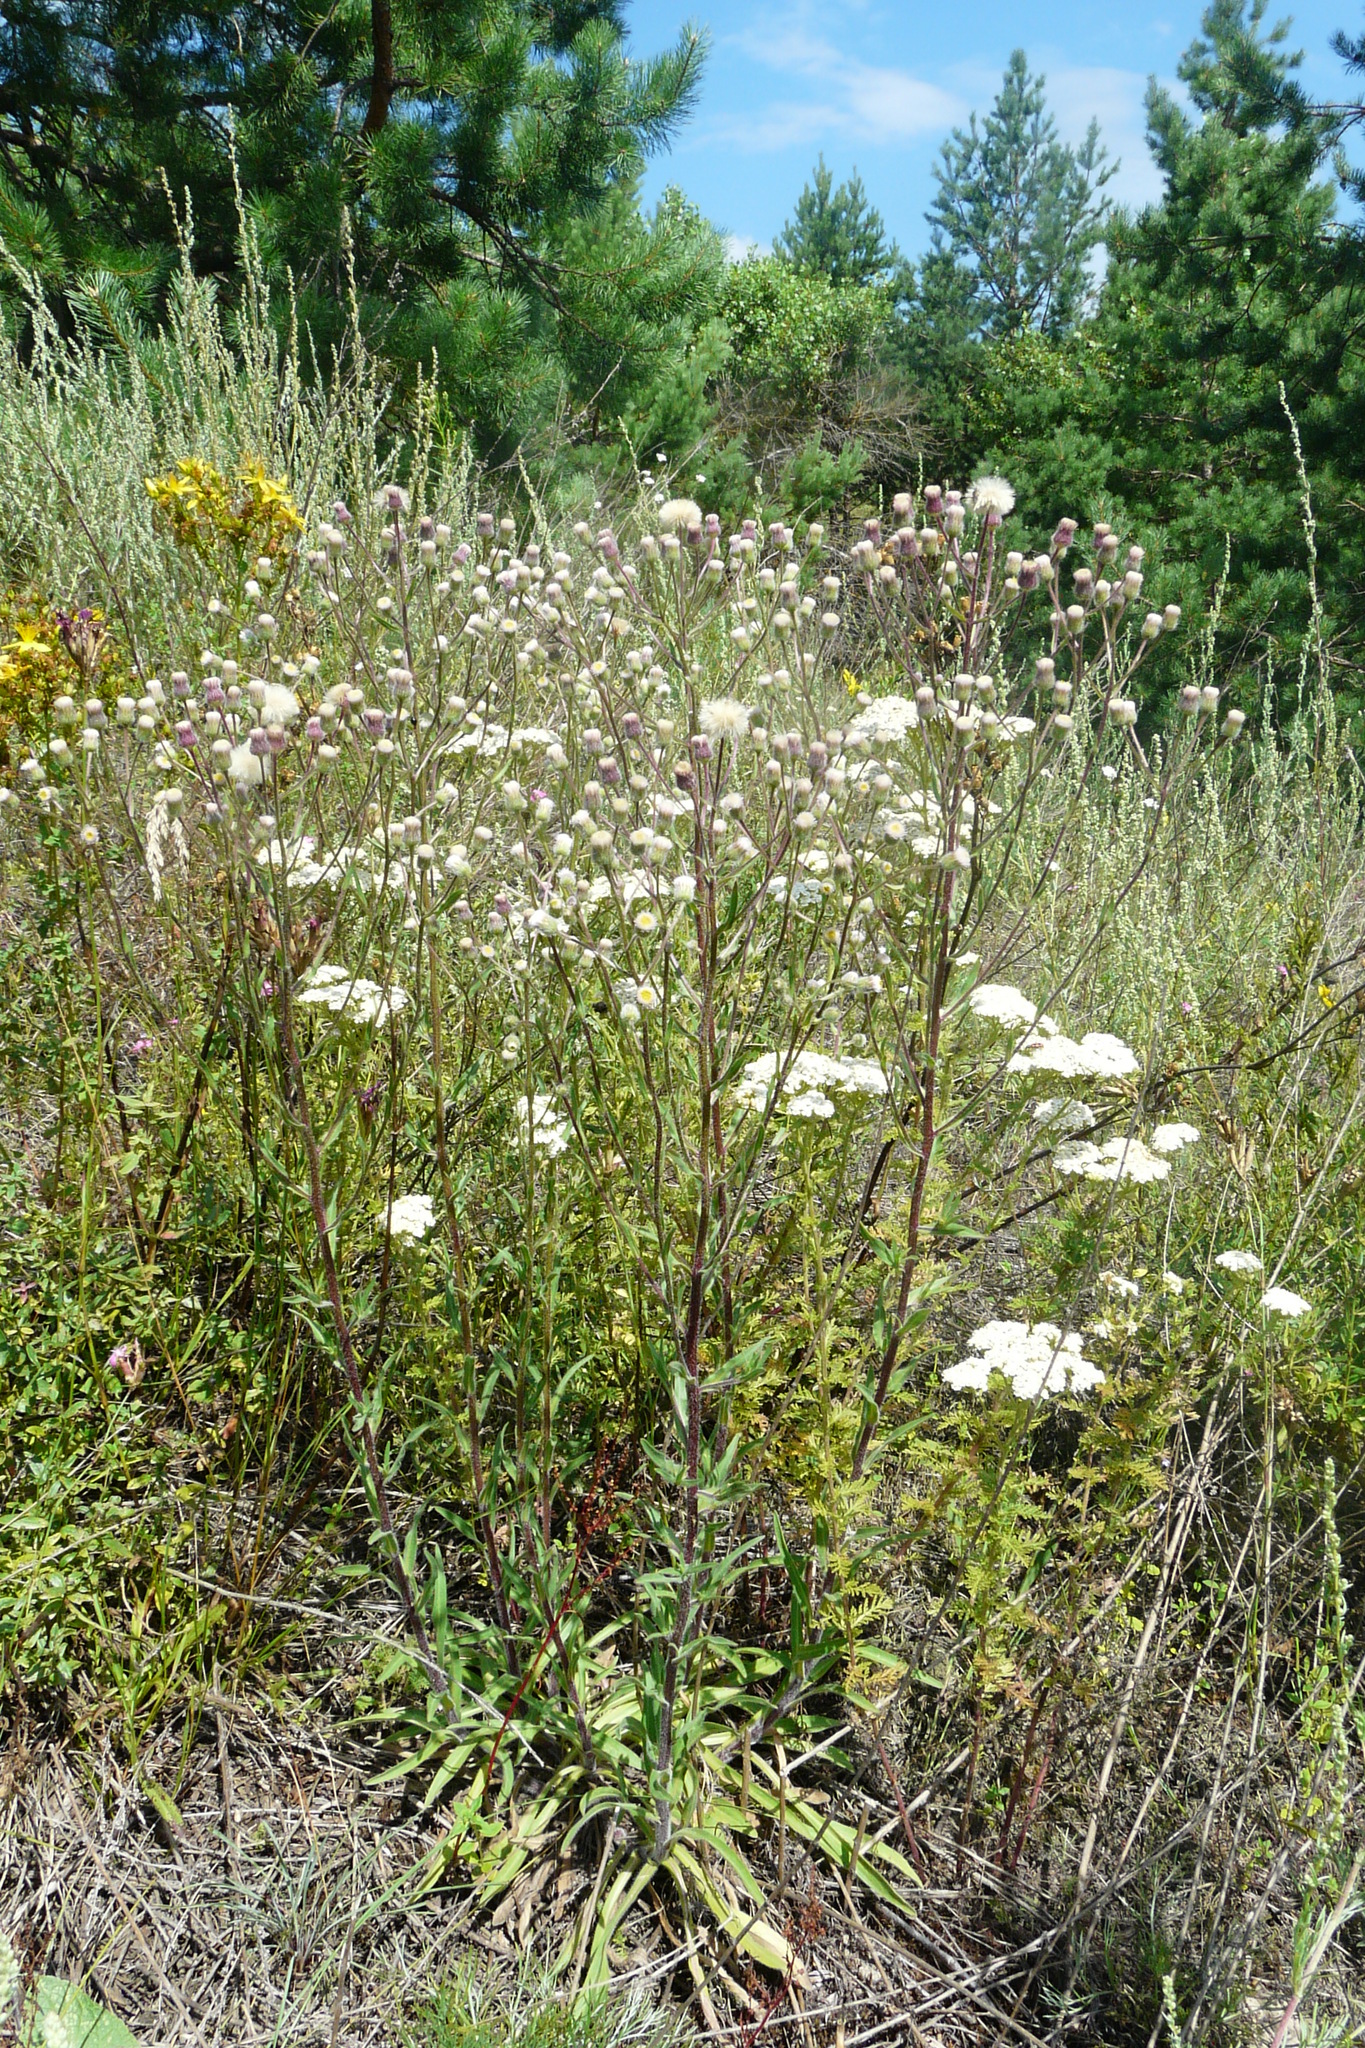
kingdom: Plantae
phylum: Tracheophyta
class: Magnoliopsida
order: Asterales
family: Asteraceae
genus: Erigeron
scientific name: Erigeron acris
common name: Blue fleabane
